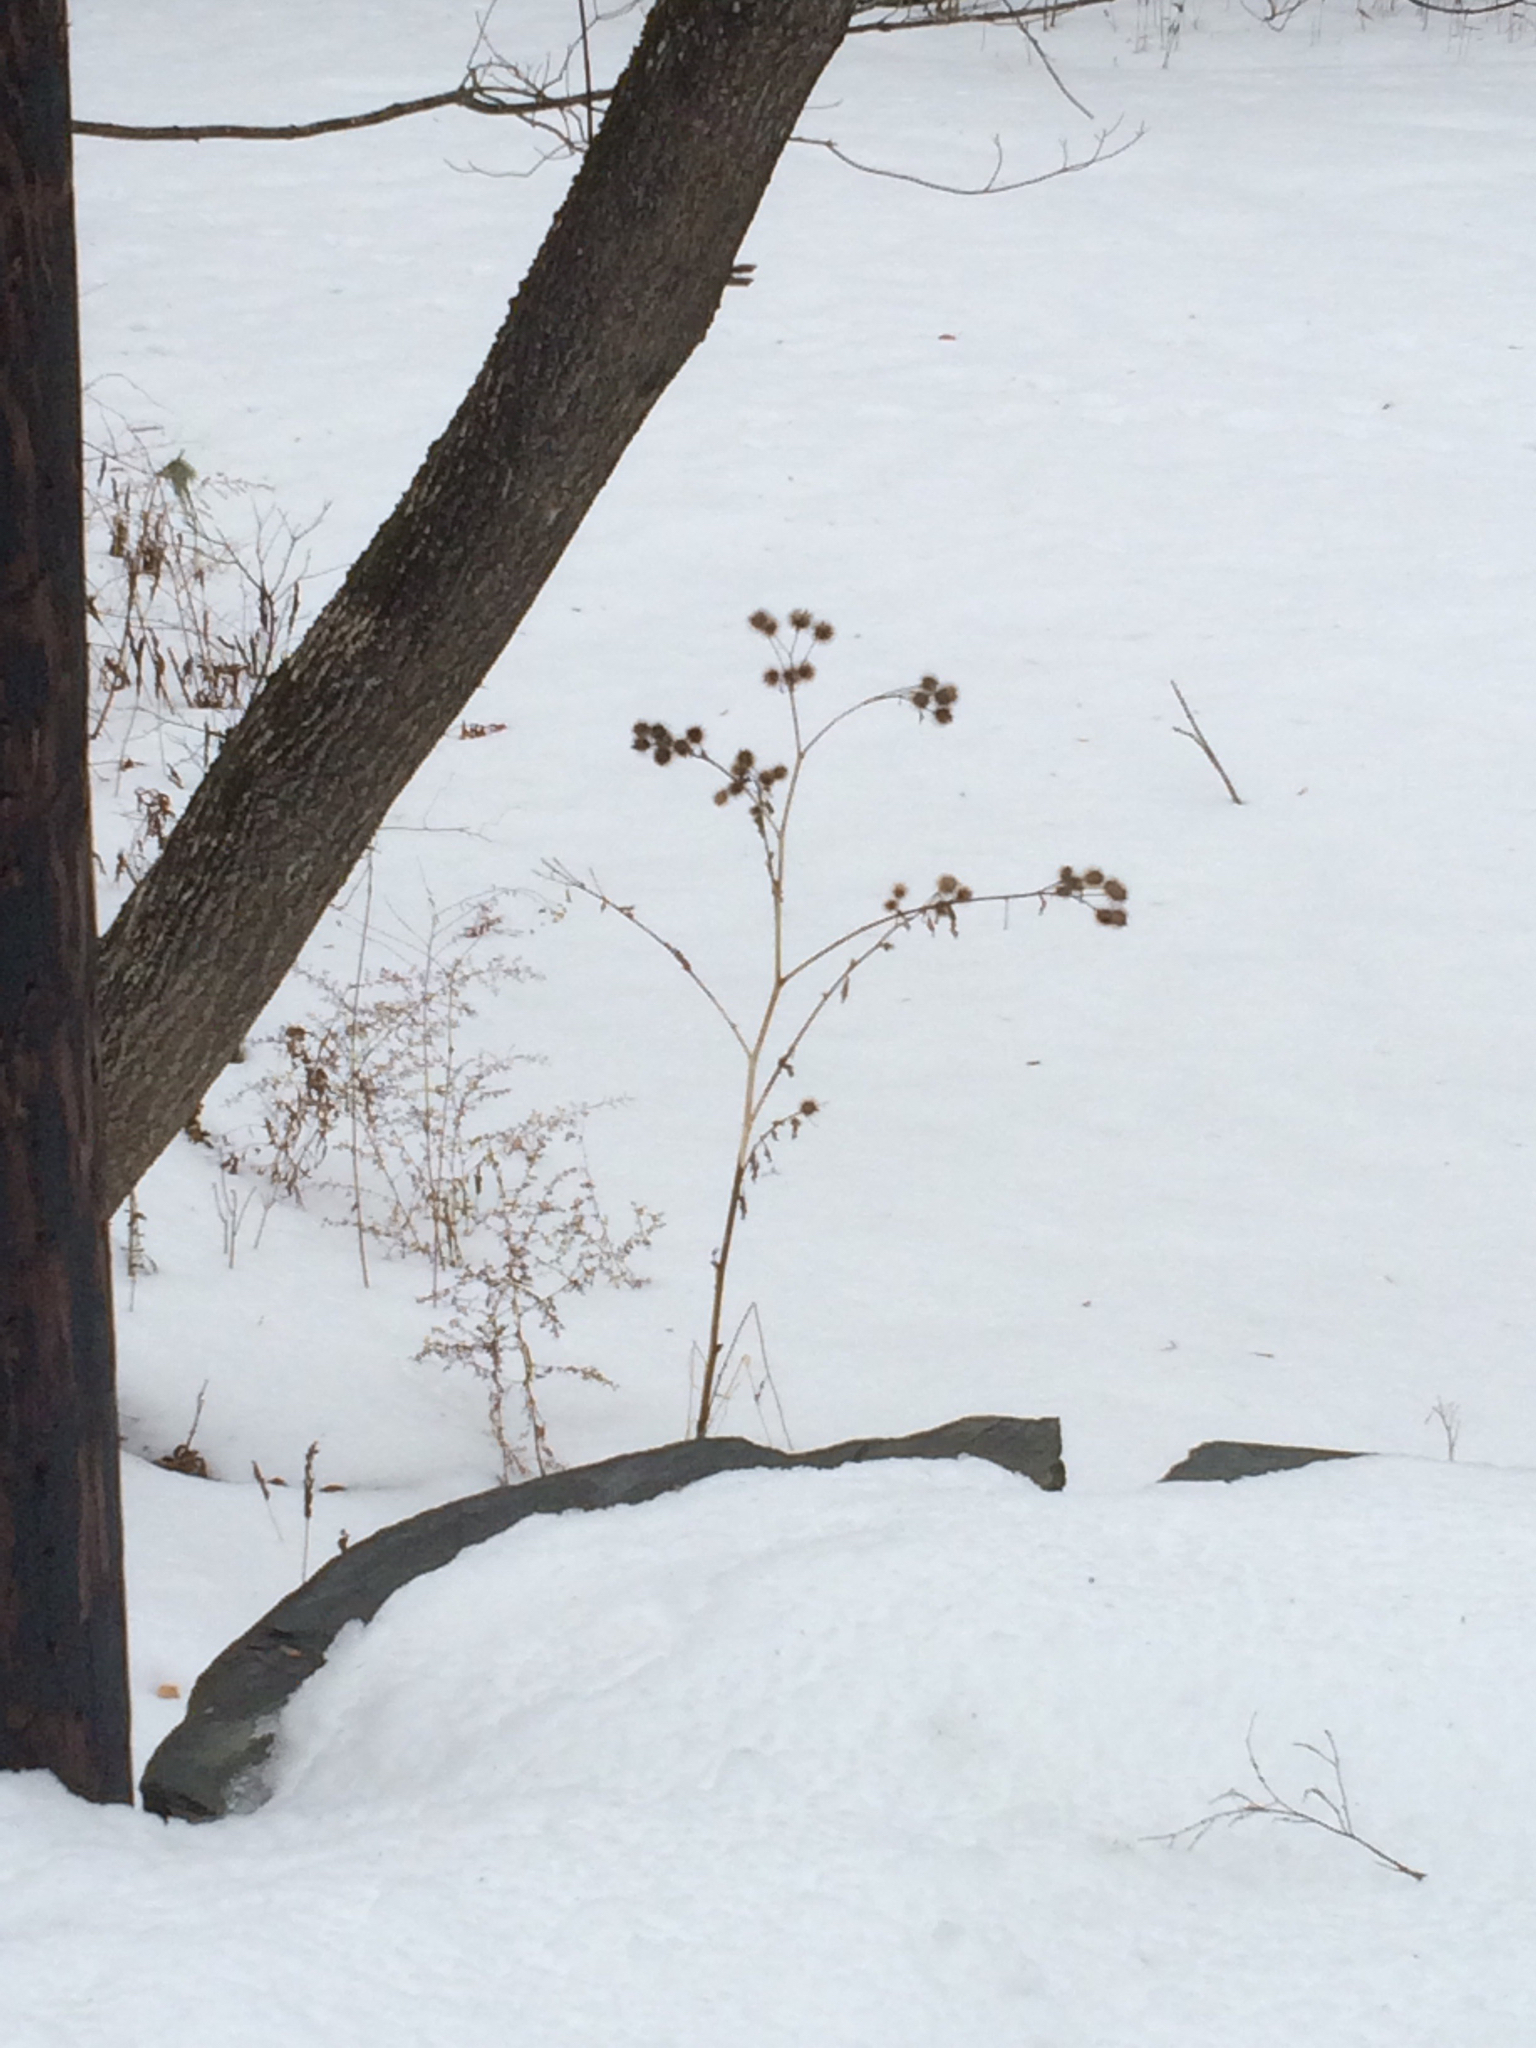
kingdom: Plantae
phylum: Tracheophyta
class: Magnoliopsida
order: Asterales
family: Asteraceae
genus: Arctium
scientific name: Arctium lappa
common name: Greater burdock
